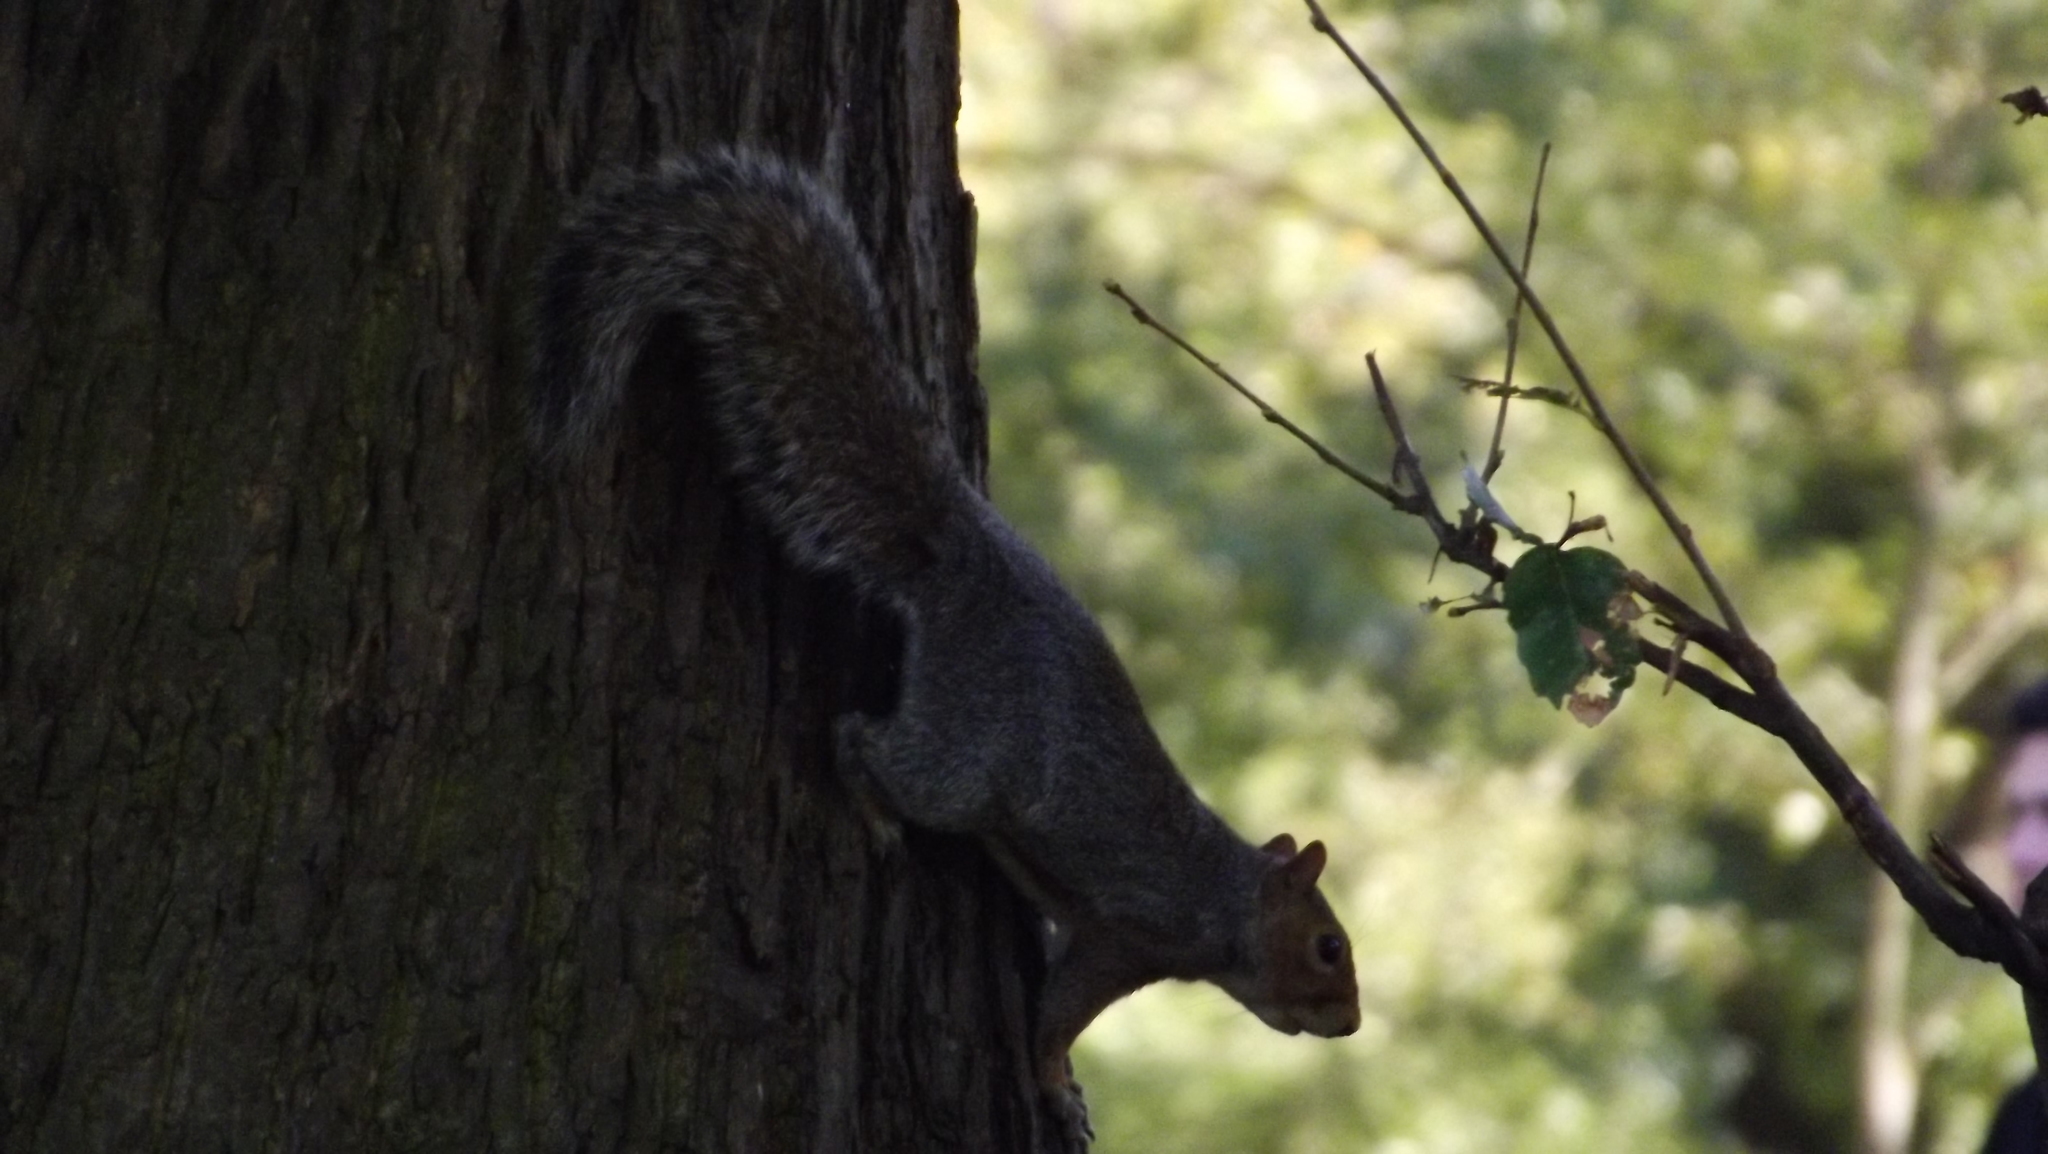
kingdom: Animalia
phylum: Chordata
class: Mammalia
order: Rodentia
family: Sciuridae
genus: Sciurus
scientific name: Sciurus carolinensis
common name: Eastern gray squirrel
